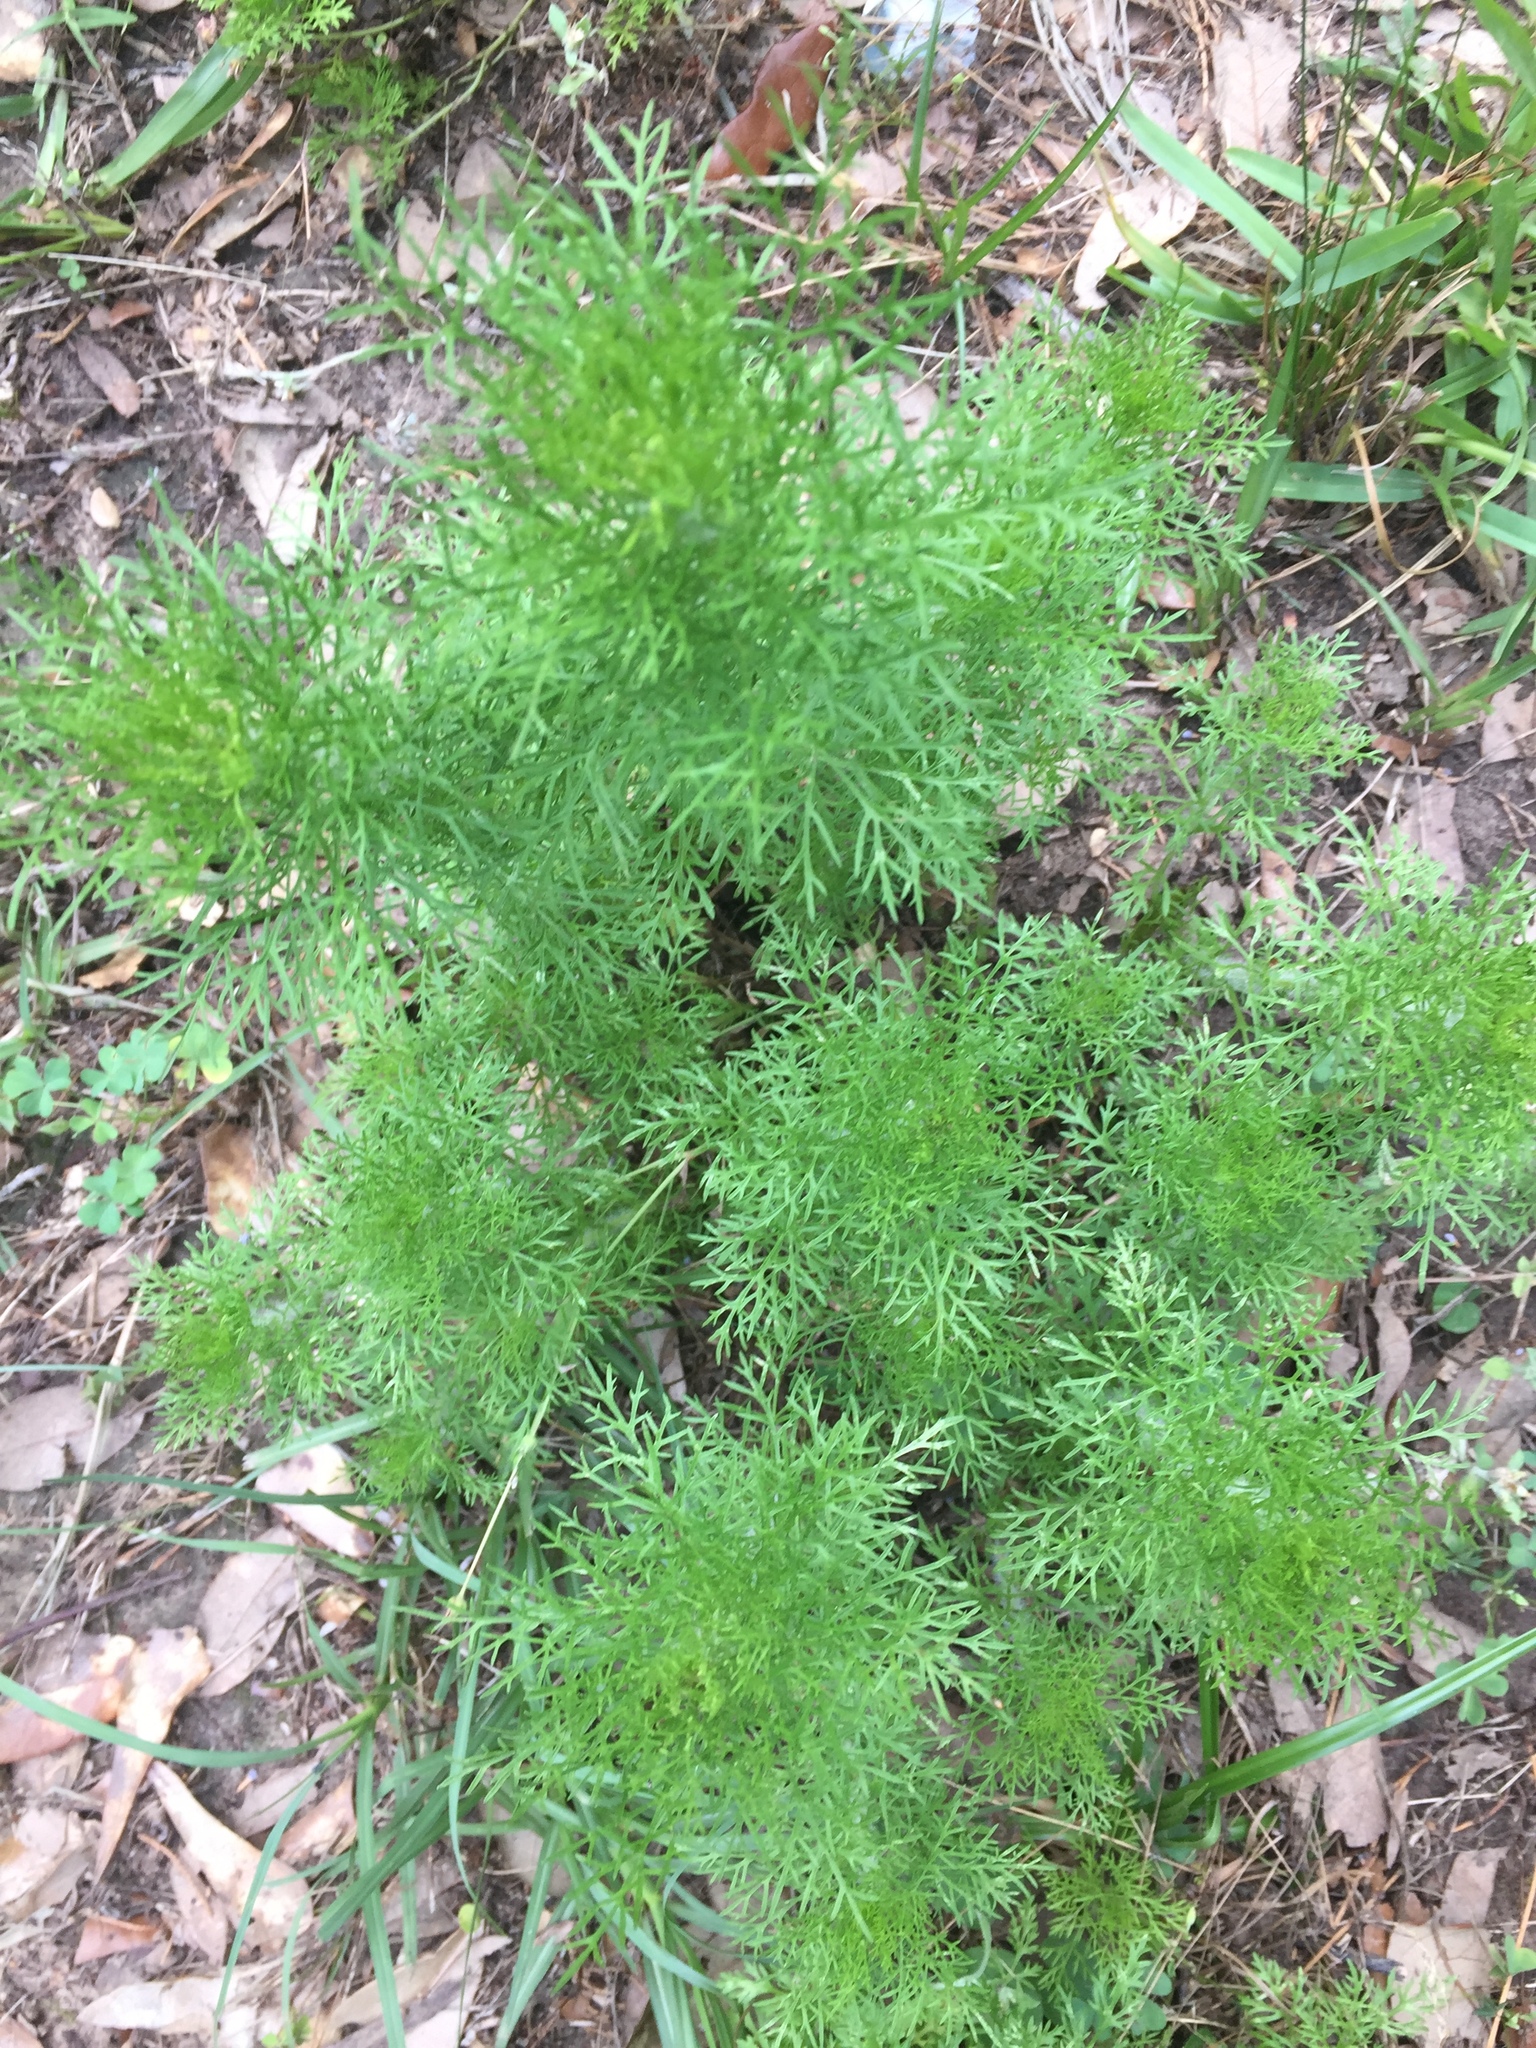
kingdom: Plantae
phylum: Tracheophyta
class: Magnoliopsida
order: Asterales
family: Asteraceae
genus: Eupatorium
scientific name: Eupatorium capillifolium
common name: Dog-fennel
